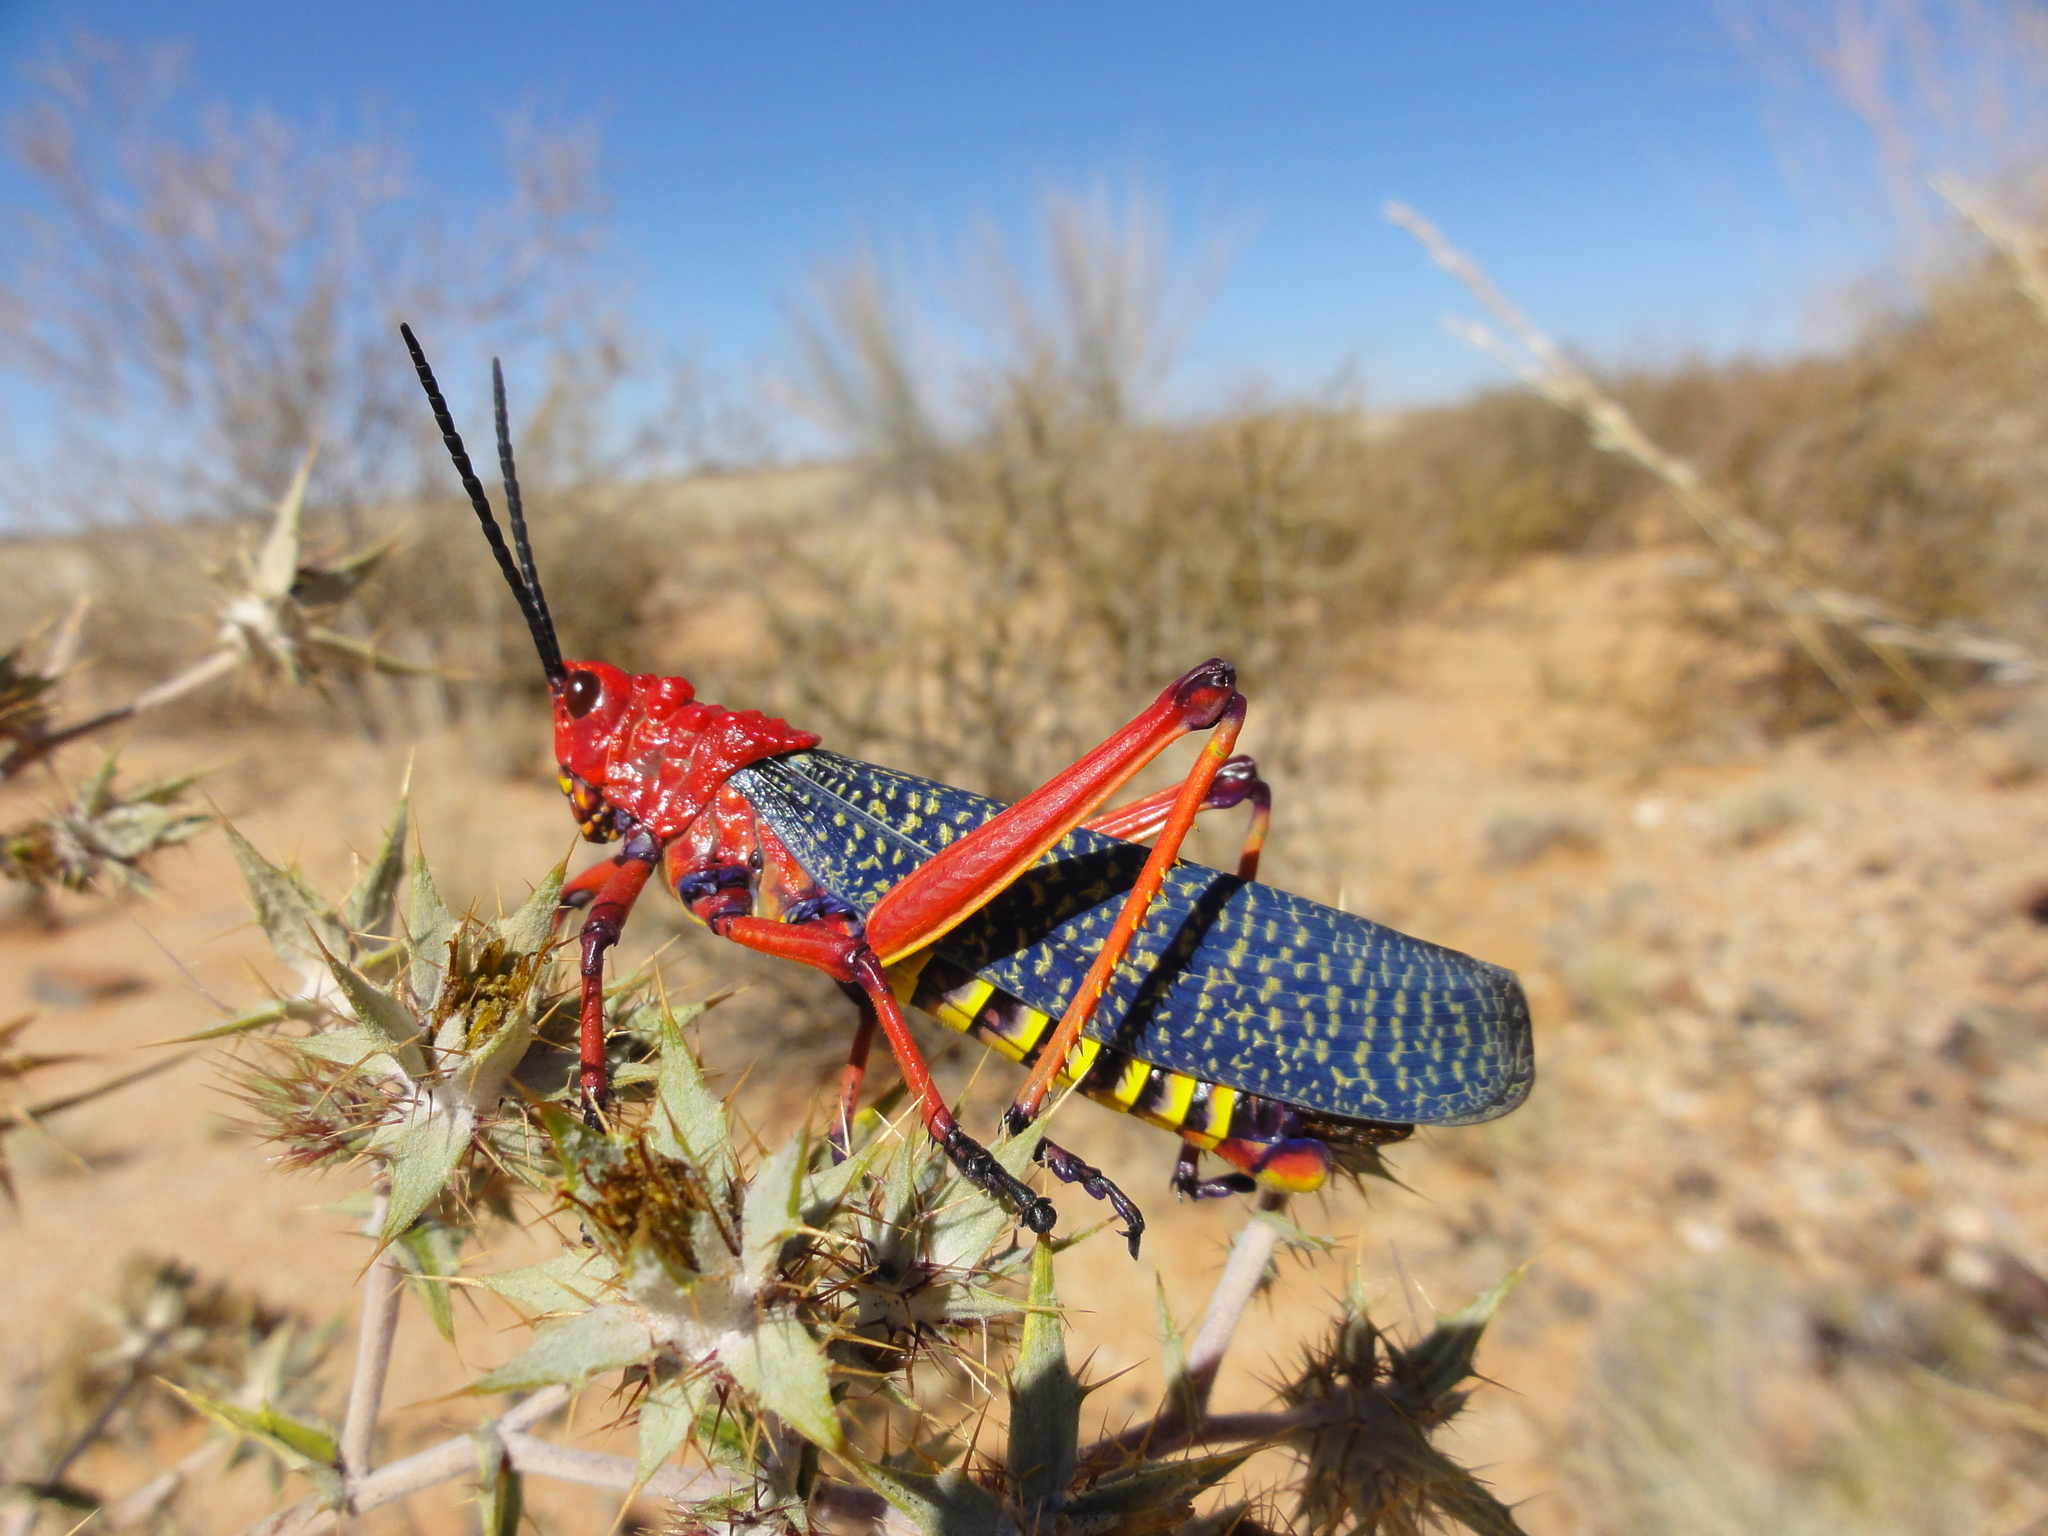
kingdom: Animalia
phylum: Arthropoda
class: Insecta
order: Orthoptera
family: Pyrgomorphidae
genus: Phymateus
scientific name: Phymateus morbillosus
